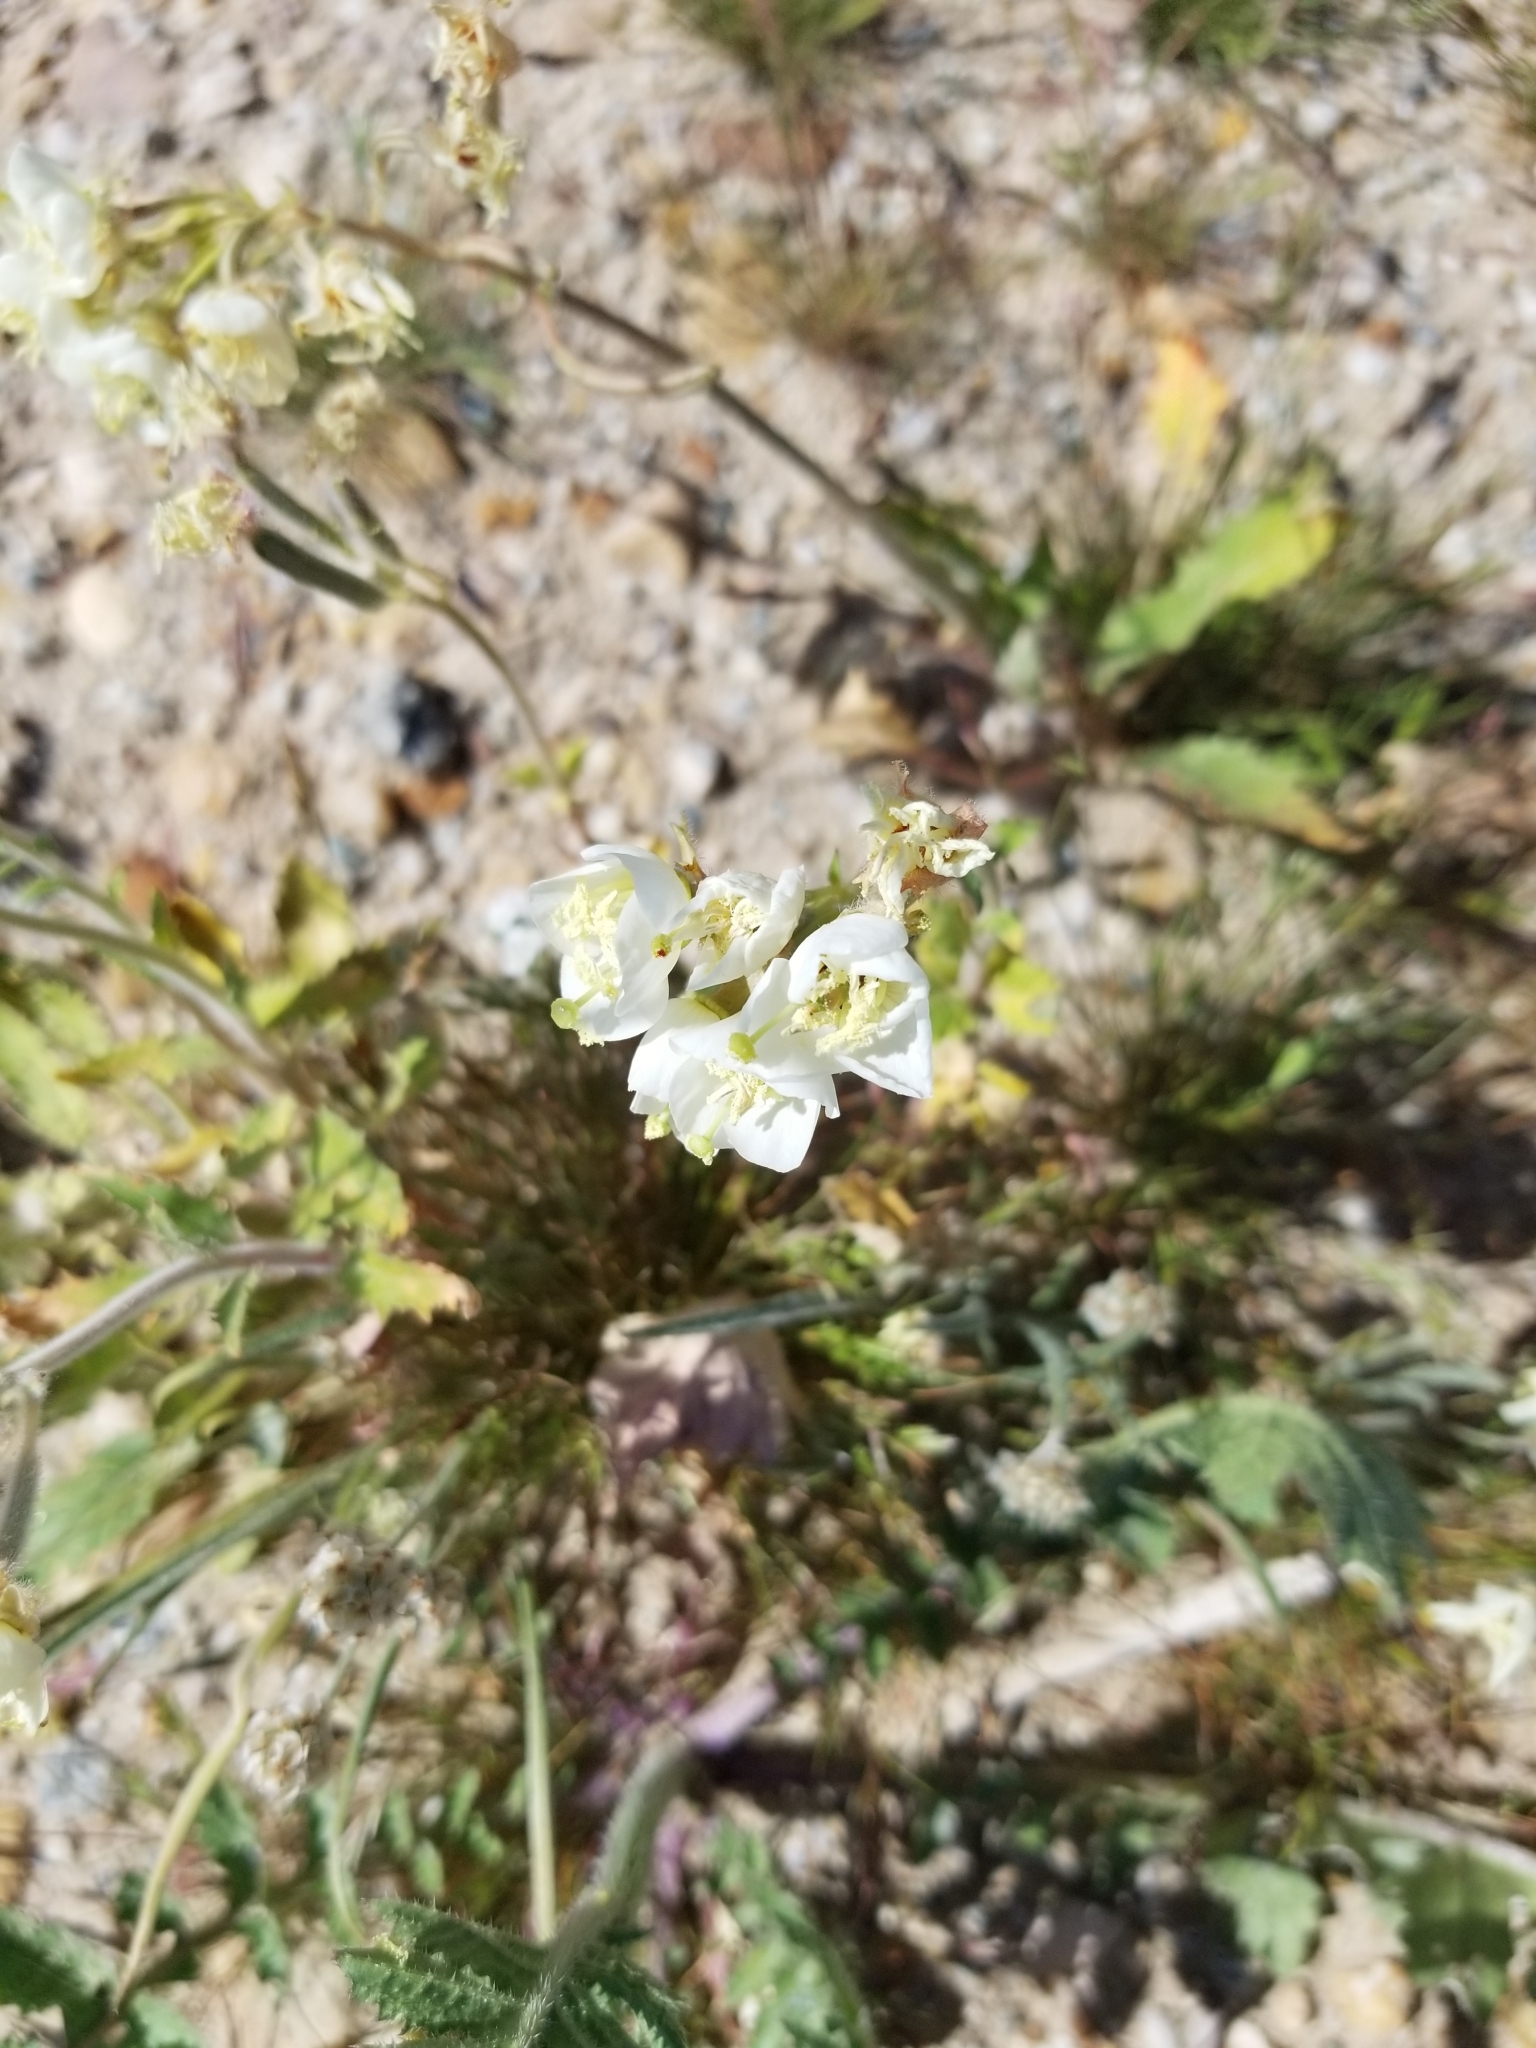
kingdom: Plantae
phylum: Tracheophyta
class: Magnoliopsida
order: Myrtales
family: Onagraceae
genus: Chylismia
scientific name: Chylismia claviformis
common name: Browneyes
